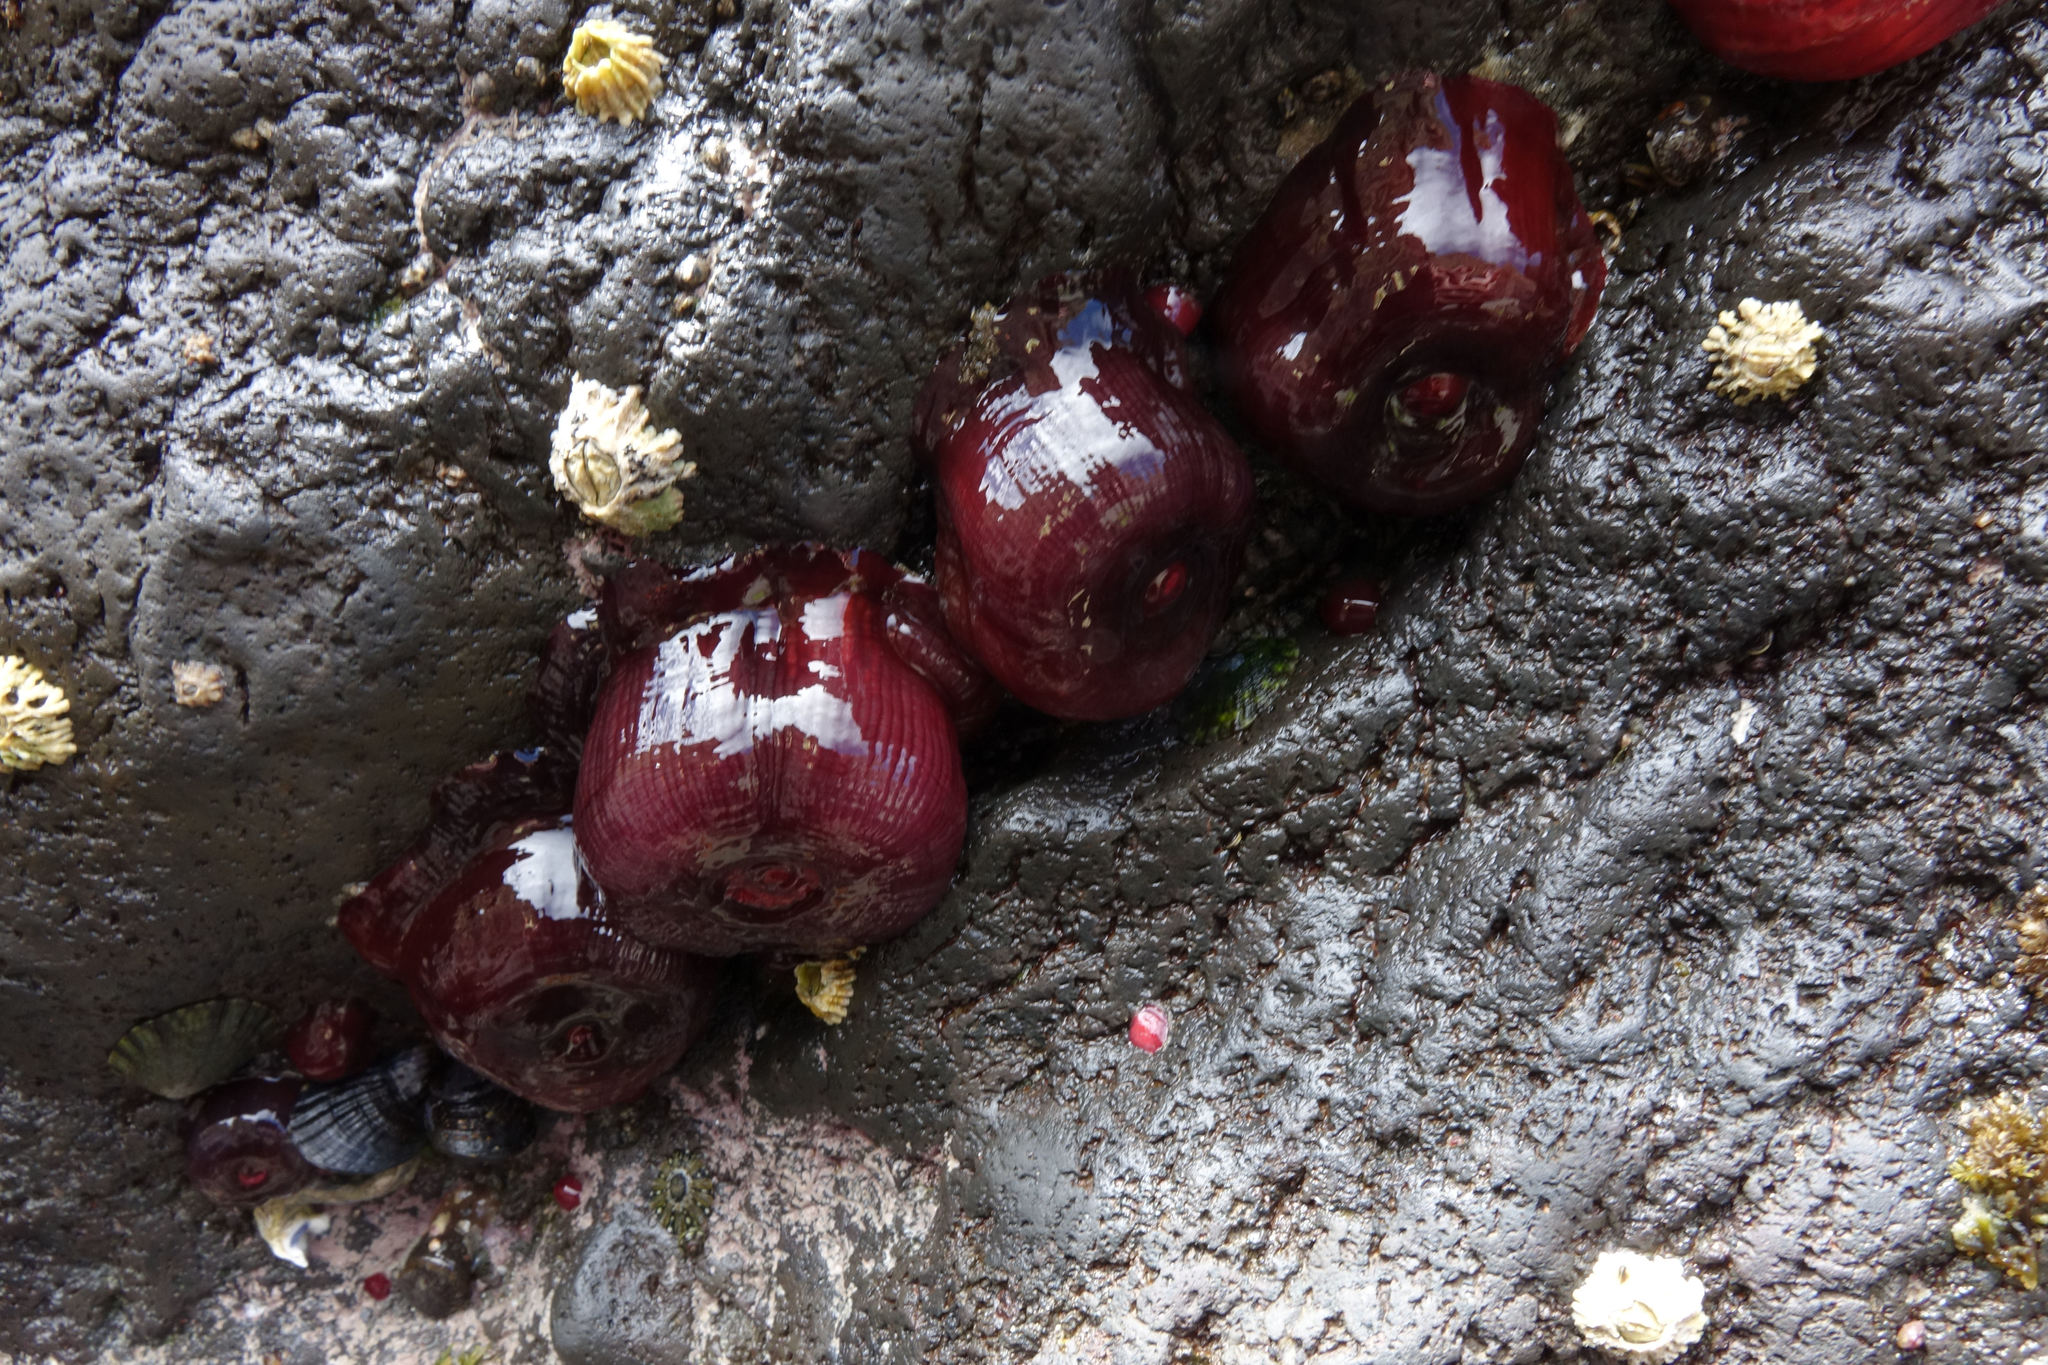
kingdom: Animalia
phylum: Cnidaria
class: Anthozoa
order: Actiniaria
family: Actiniidae
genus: Actinia
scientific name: Actinia tenebrosa
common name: Waratah anemone
